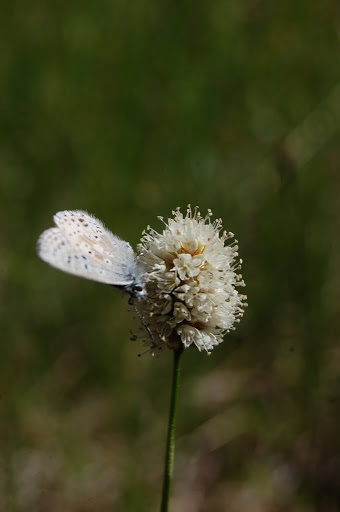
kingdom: Plantae
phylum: Tracheophyta
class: Magnoliopsida
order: Caryophyllales
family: Polygonaceae
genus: Bistorta
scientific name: Bistorta bistortoides
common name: American bistort
